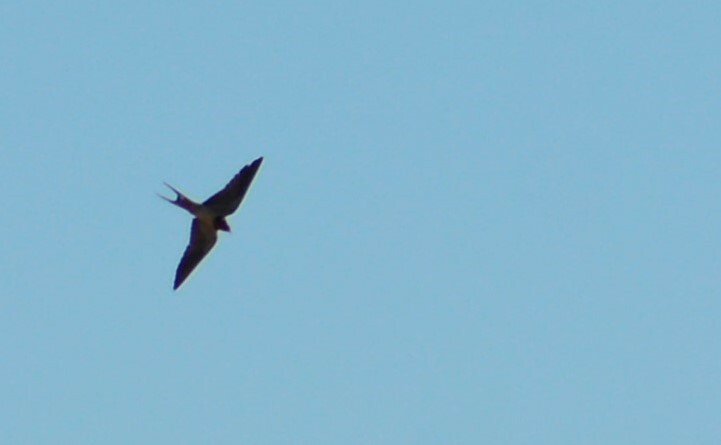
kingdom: Animalia
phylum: Chordata
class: Aves
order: Passeriformes
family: Hirundinidae
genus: Hirundo
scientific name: Hirundo rustica
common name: Barn swallow
